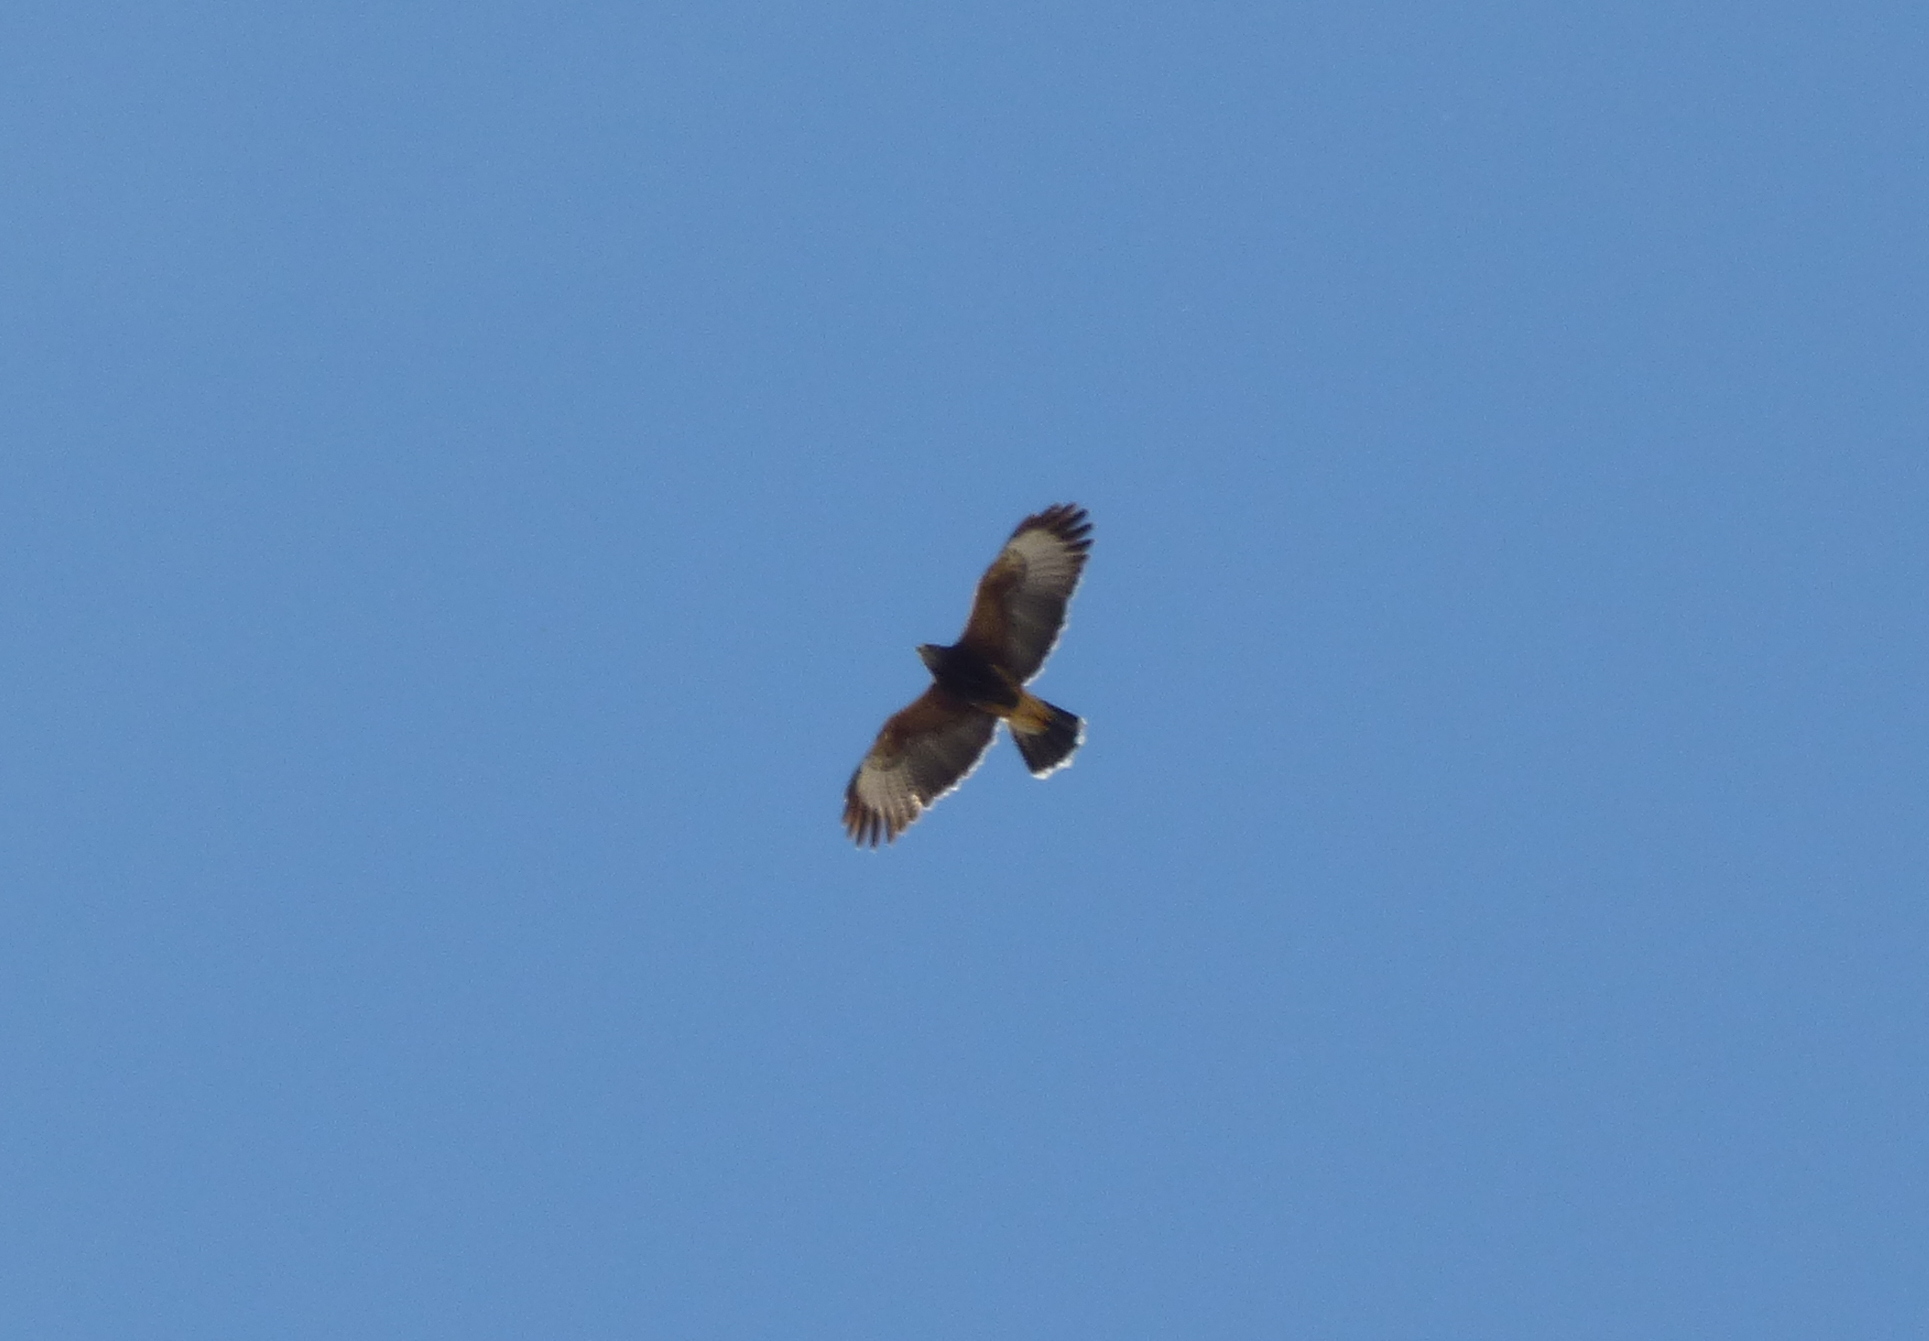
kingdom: Animalia
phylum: Chordata
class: Aves
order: Accipitriformes
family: Accipitridae
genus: Parabuteo
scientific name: Parabuteo unicinctus
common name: Harris's hawk
